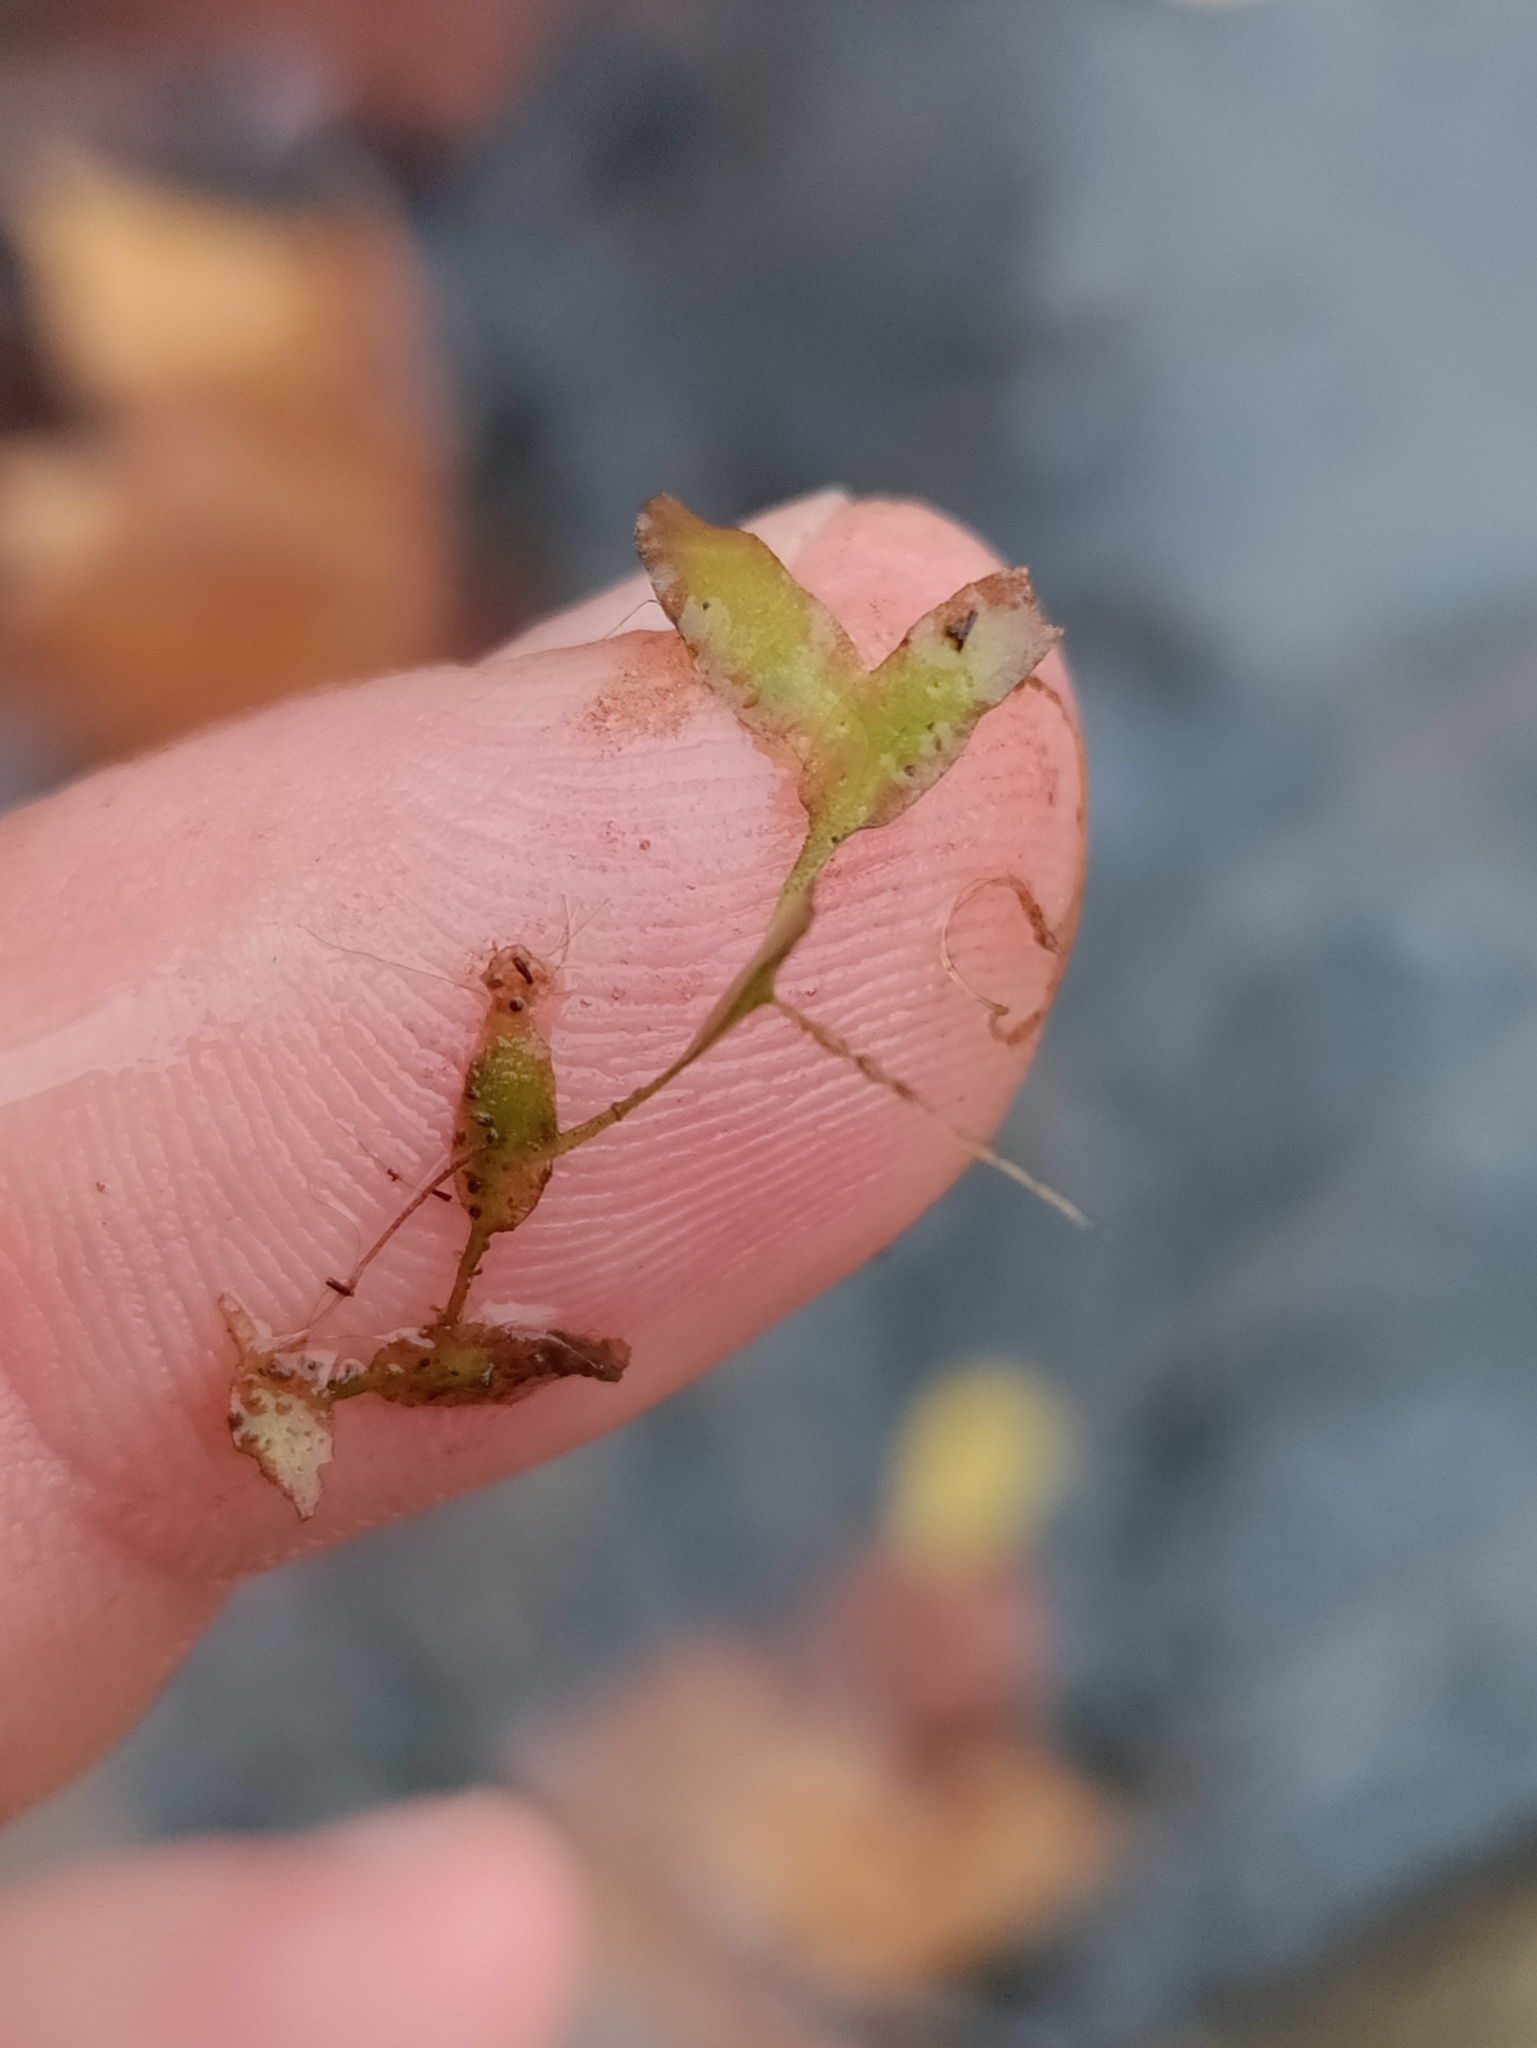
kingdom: Plantae
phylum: Tracheophyta
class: Liliopsida
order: Alismatales
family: Araceae
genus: Lemna
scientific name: Lemna trisulca
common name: Ivy-leaved duckweed
